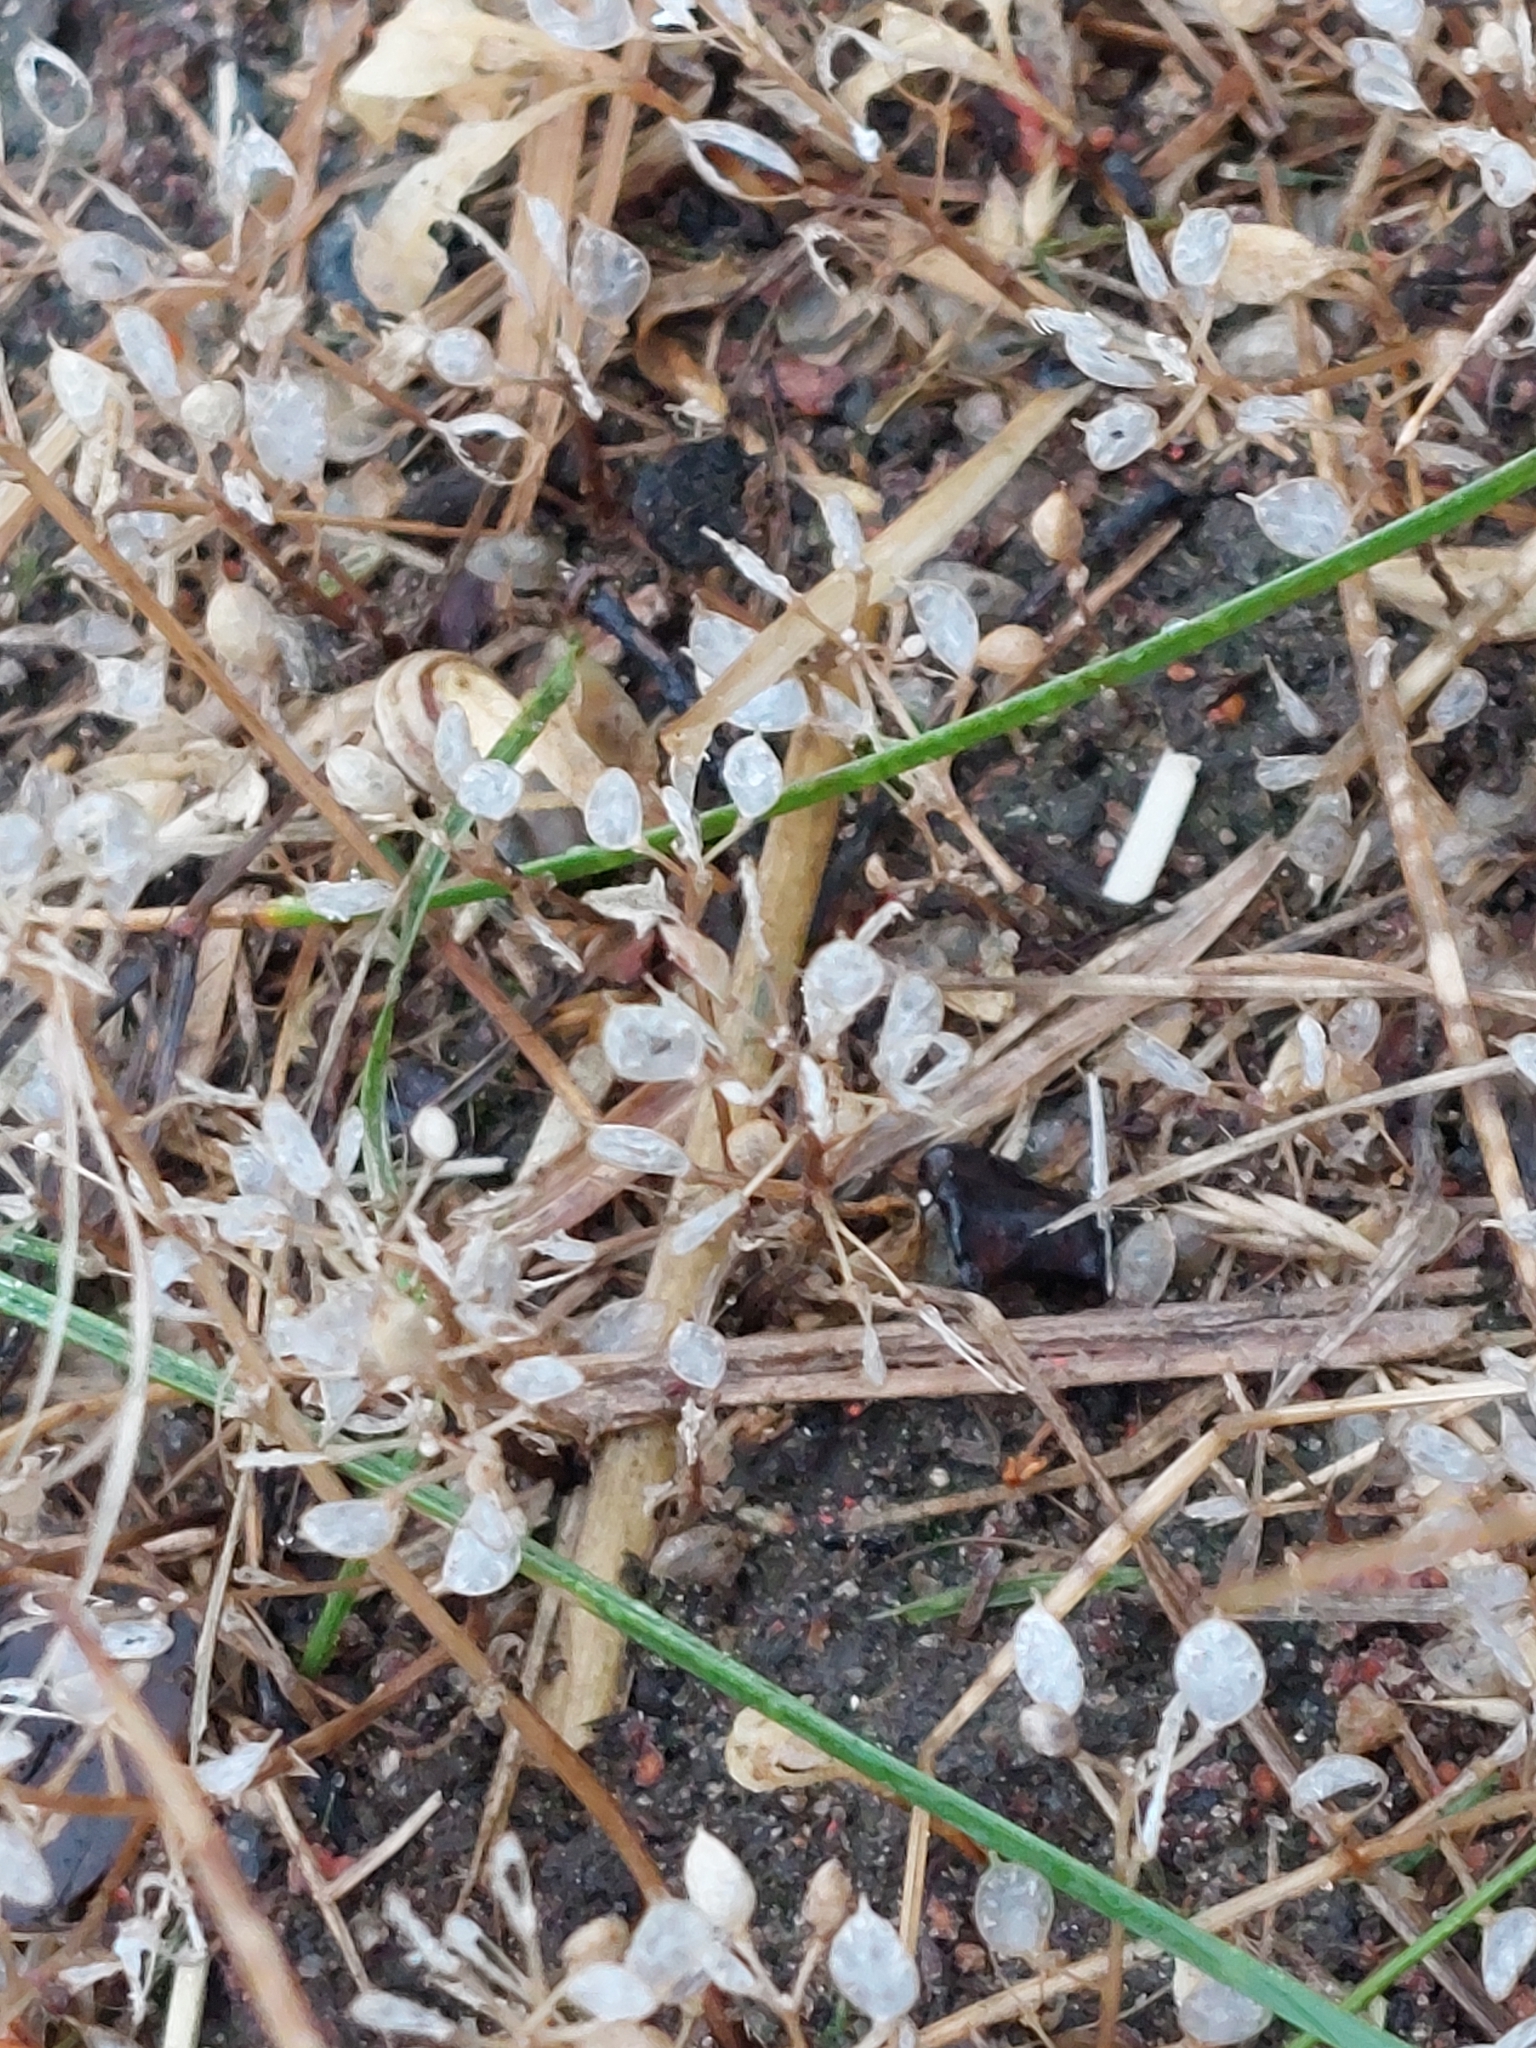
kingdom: Plantae
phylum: Tracheophyta
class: Magnoliopsida
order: Brassicales
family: Brassicaceae
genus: Draba
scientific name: Draba verna
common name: Spring draba
